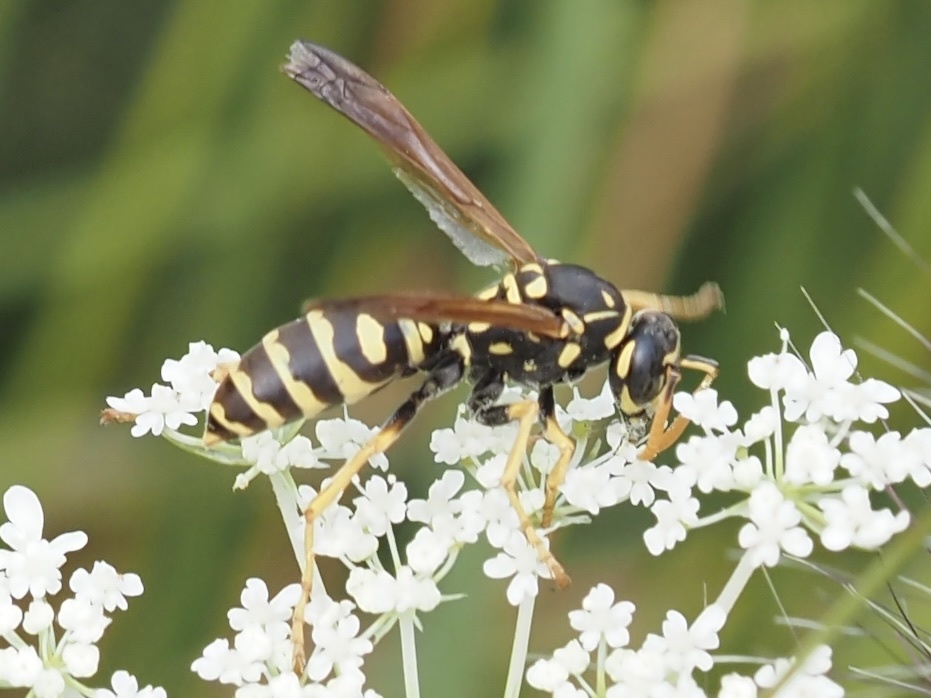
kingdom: Animalia
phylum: Arthropoda
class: Insecta
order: Hymenoptera
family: Eumenidae
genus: Polistes
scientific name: Polistes dominula
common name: Paper wasp
